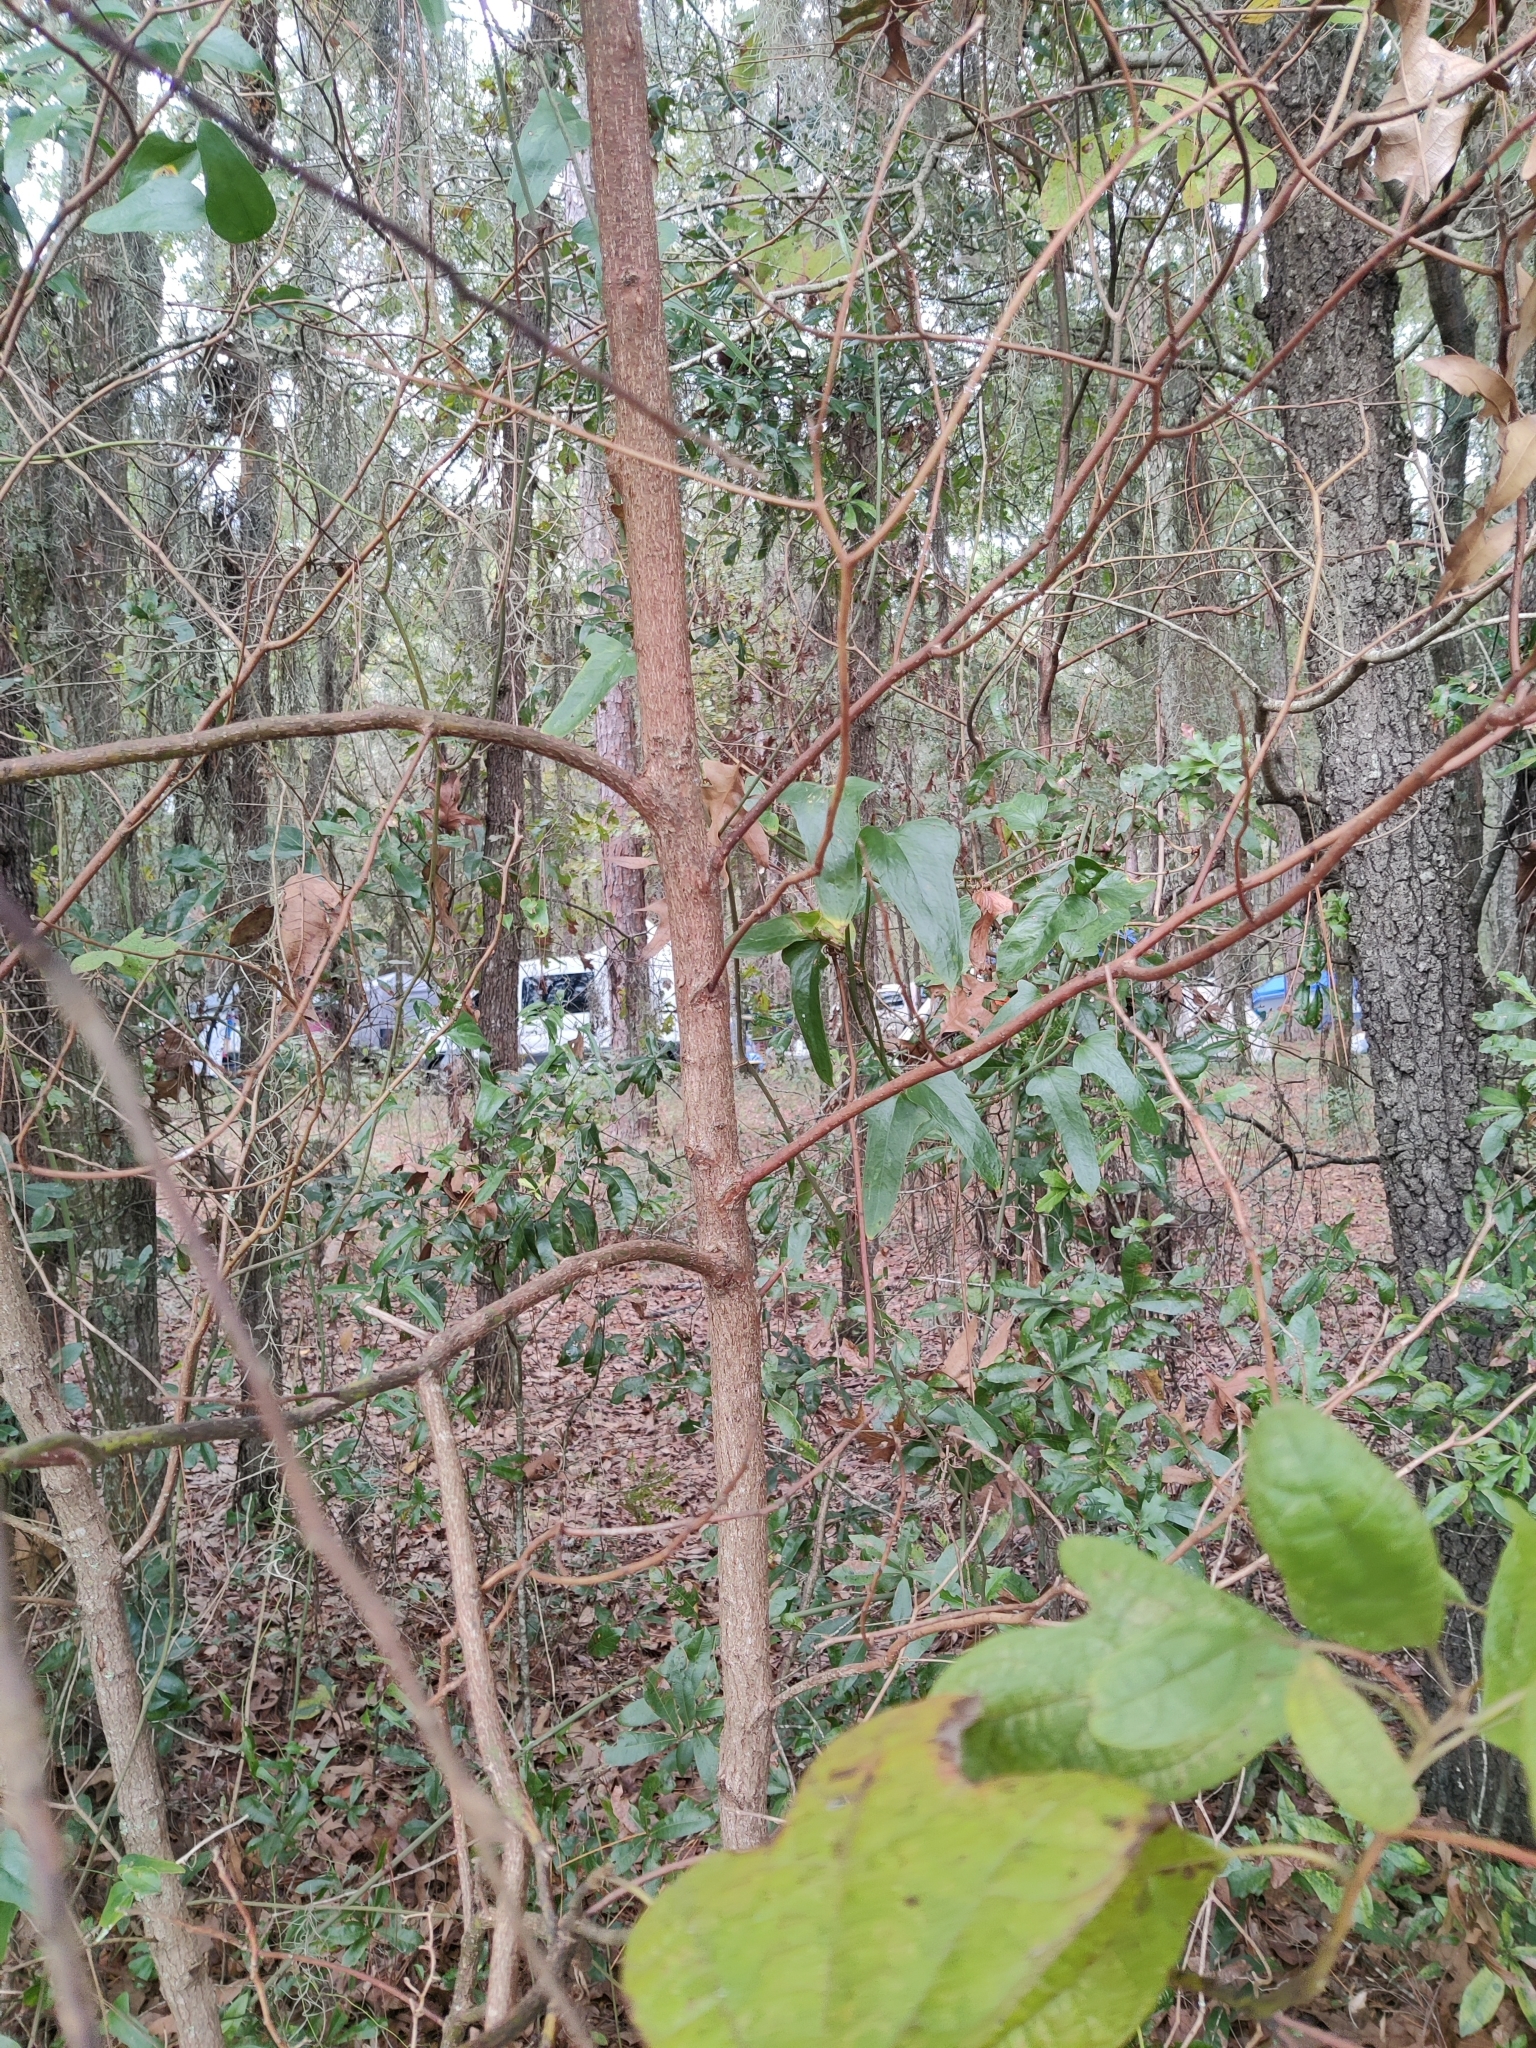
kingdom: Plantae
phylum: Tracheophyta
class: Magnoliopsida
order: Laurales
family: Lauraceae
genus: Sassafras
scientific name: Sassafras albidum
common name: Sassafras
